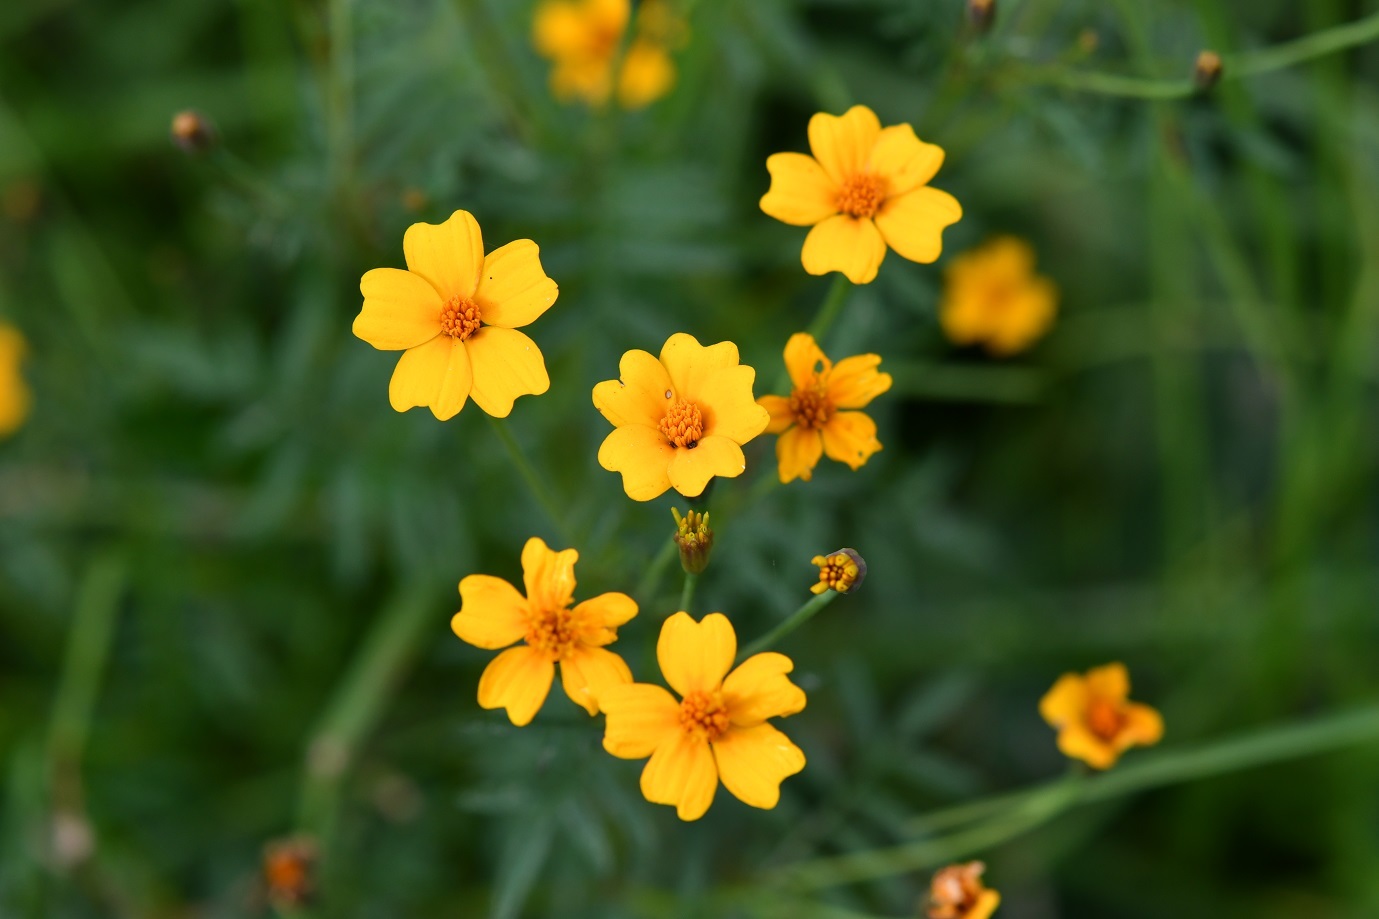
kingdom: Plantae
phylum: Tracheophyta
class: Magnoliopsida
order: Asterales
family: Asteraceae
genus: Tagetes
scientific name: Tagetes tenuifolia
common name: Signet marigold
